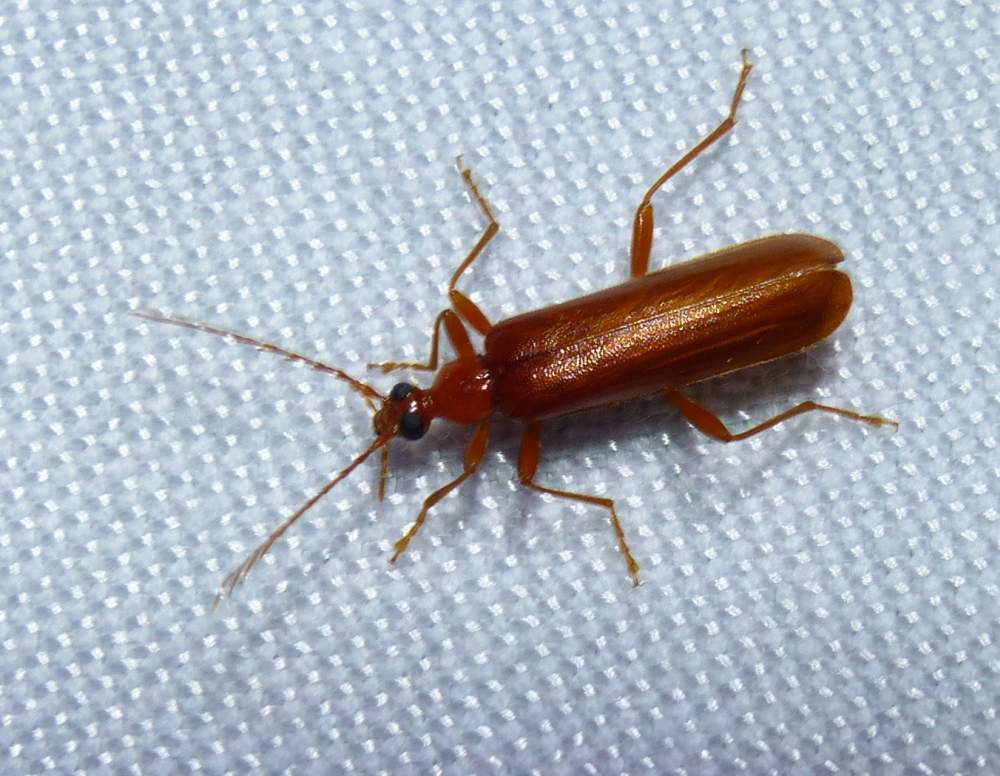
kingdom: Animalia
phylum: Arthropoda
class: Insecta
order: Coleoptera
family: Pyrochroidae
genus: Dendroides
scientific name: Dendroides concolor
